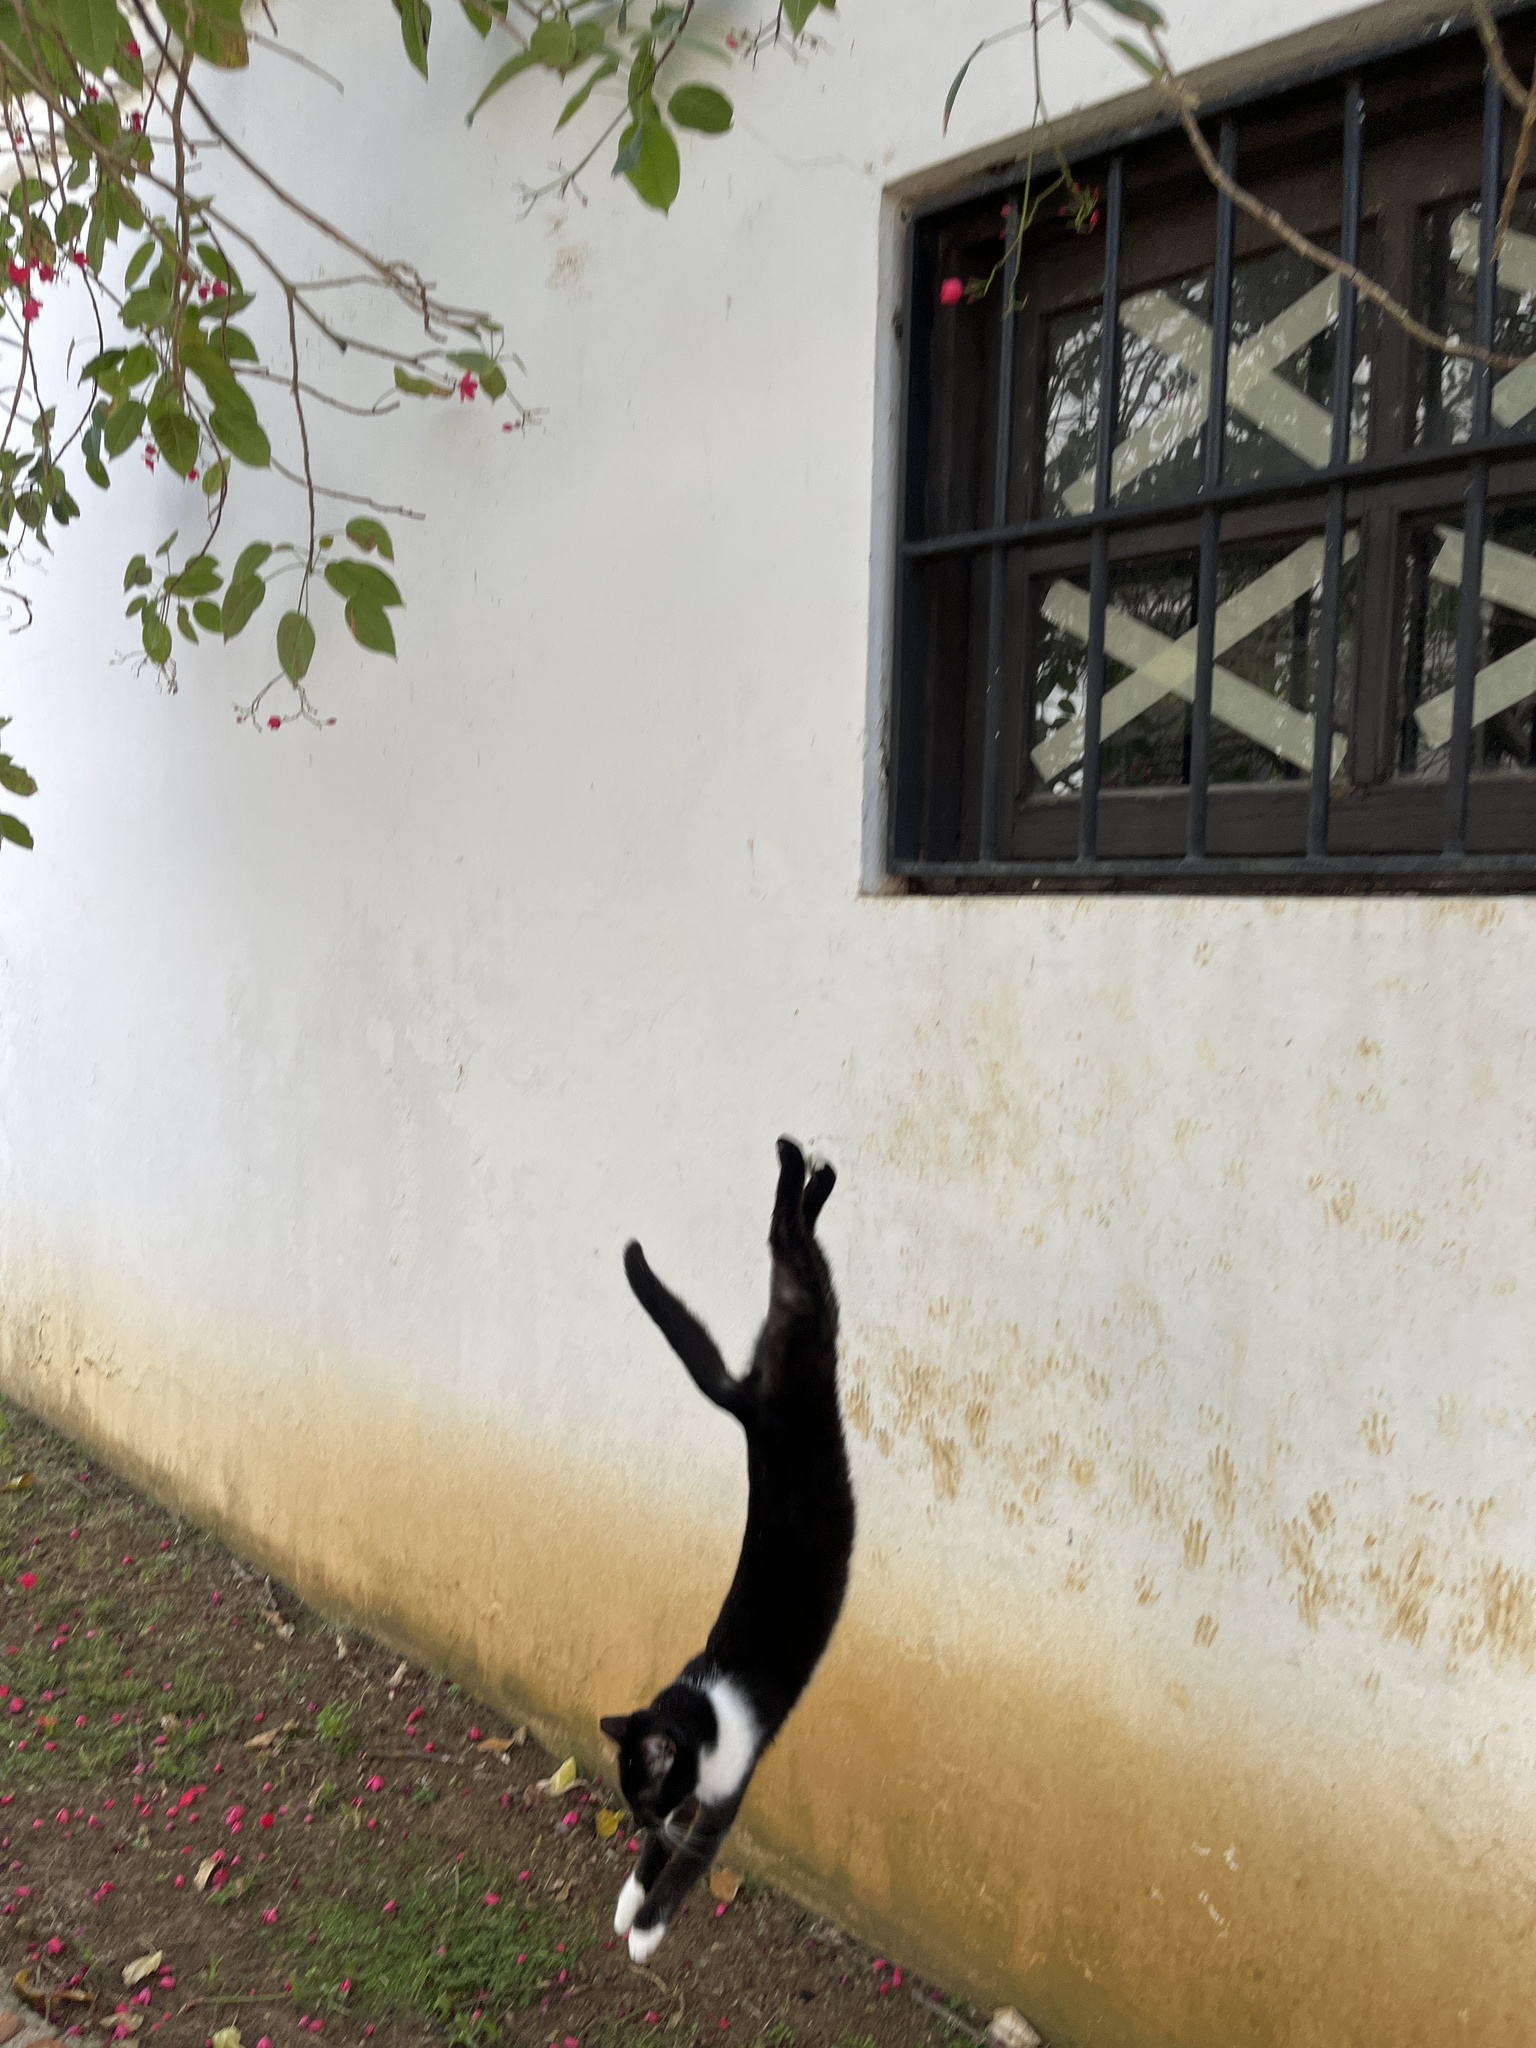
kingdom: Animalia
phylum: Chordata
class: Mammalia
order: Carnivora
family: Felidae
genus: Felis
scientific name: Felis catus
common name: Domestic cat
